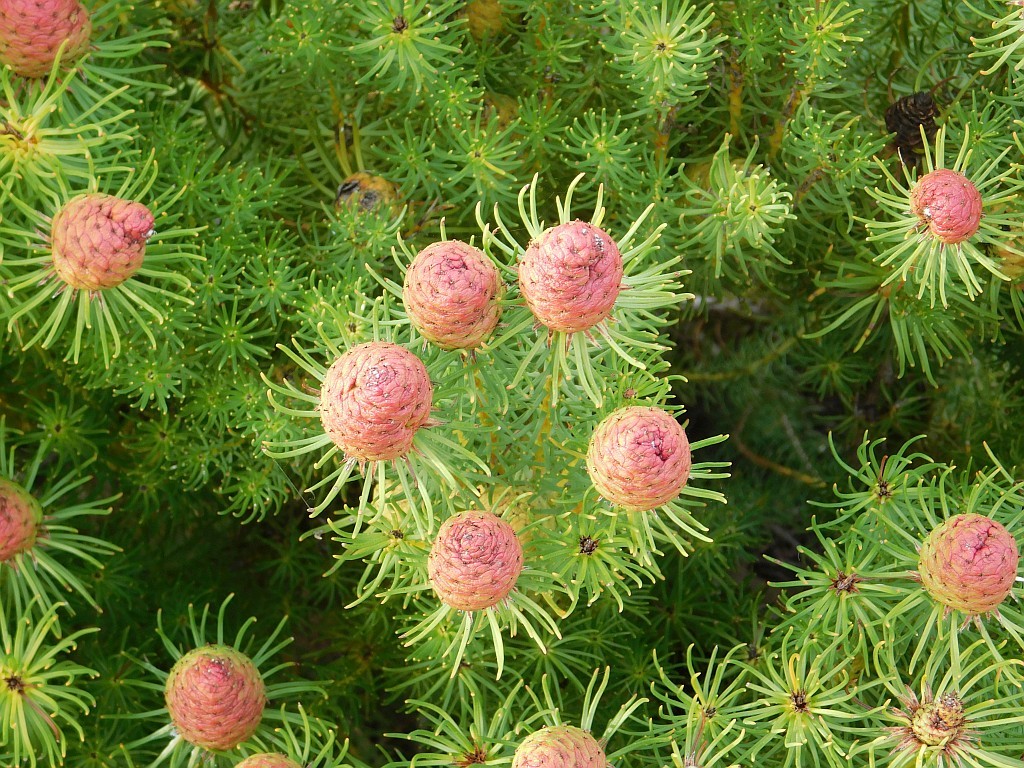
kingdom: Plantae
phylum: Tracheophyta
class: Magnoliopsida
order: Proteales
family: Proteaceae
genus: Leucadendron
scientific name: Leucadendron teretifolium
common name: Needle-leaf conebush
